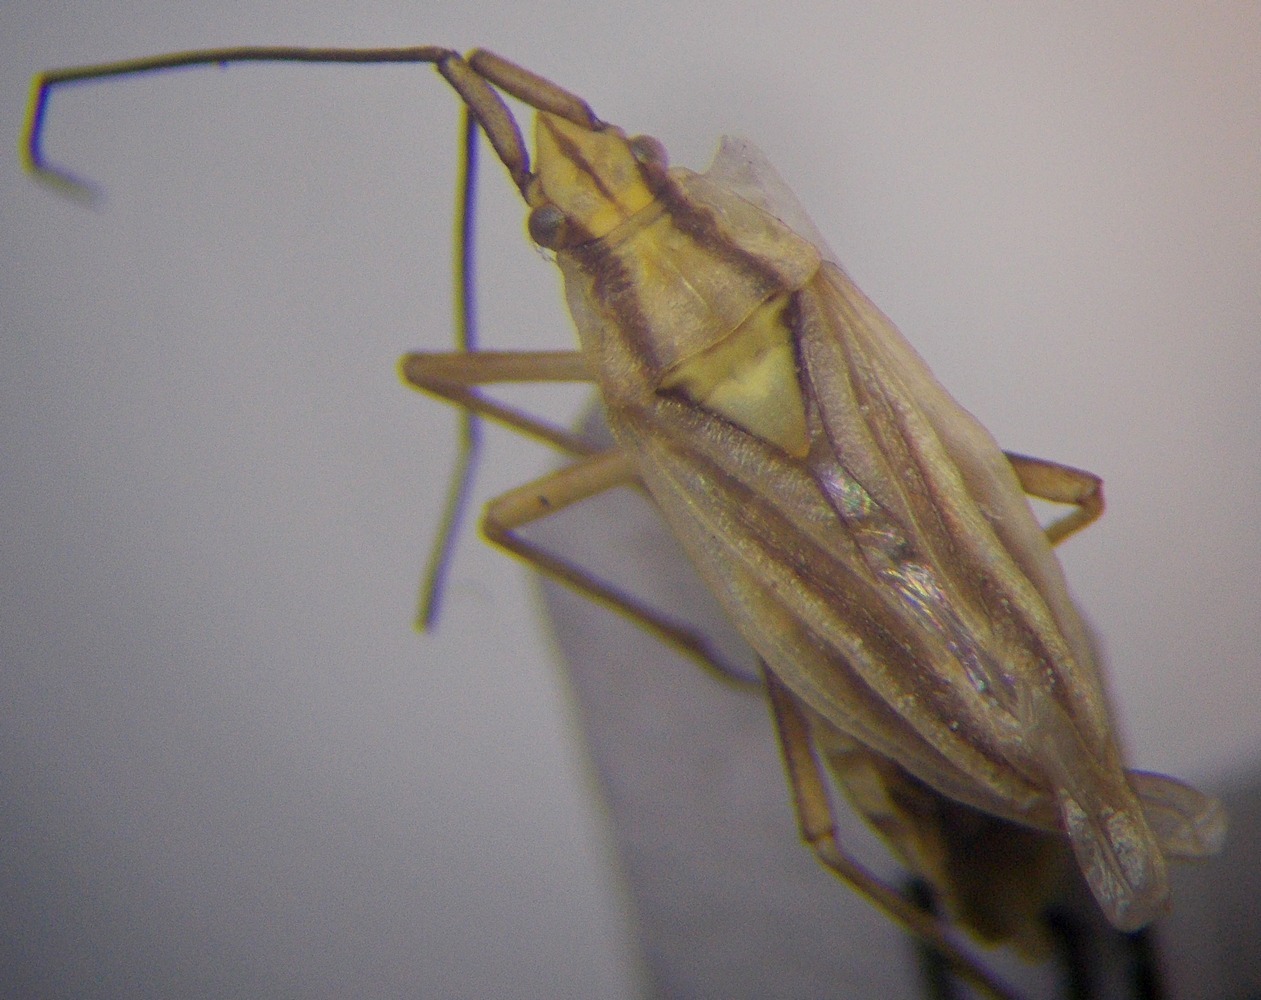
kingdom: Animalia
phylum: Arthropoda
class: Insecta
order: Hemiptera
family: Miridae
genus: Acetropis
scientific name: Acetropis carinata
